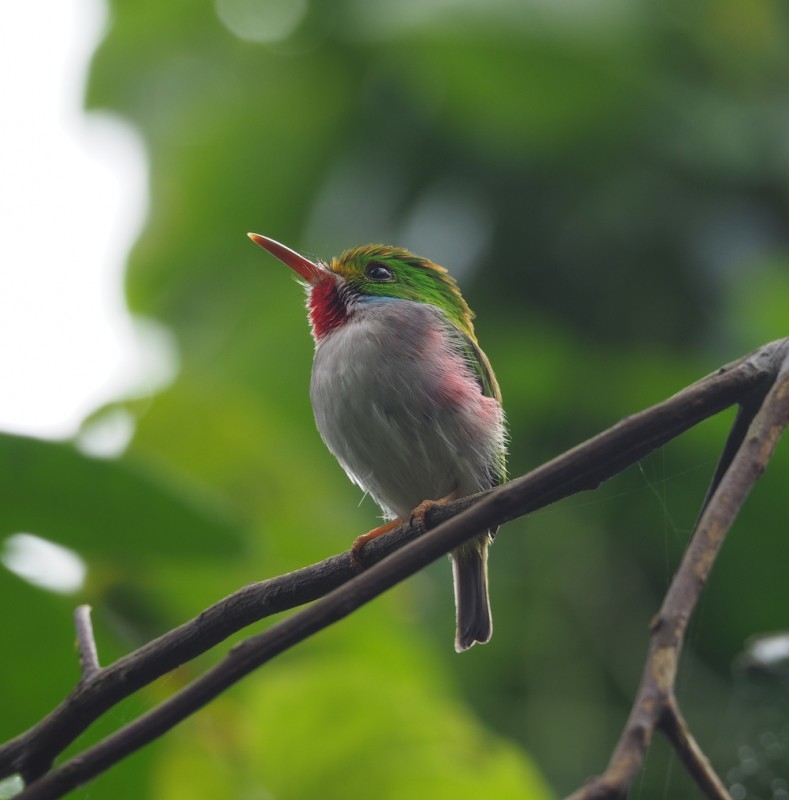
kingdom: Animalia
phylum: Chordata
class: Aves
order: Coraciiformes
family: Todidae
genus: Todus
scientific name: Todus multicolor
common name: Cuban tody
